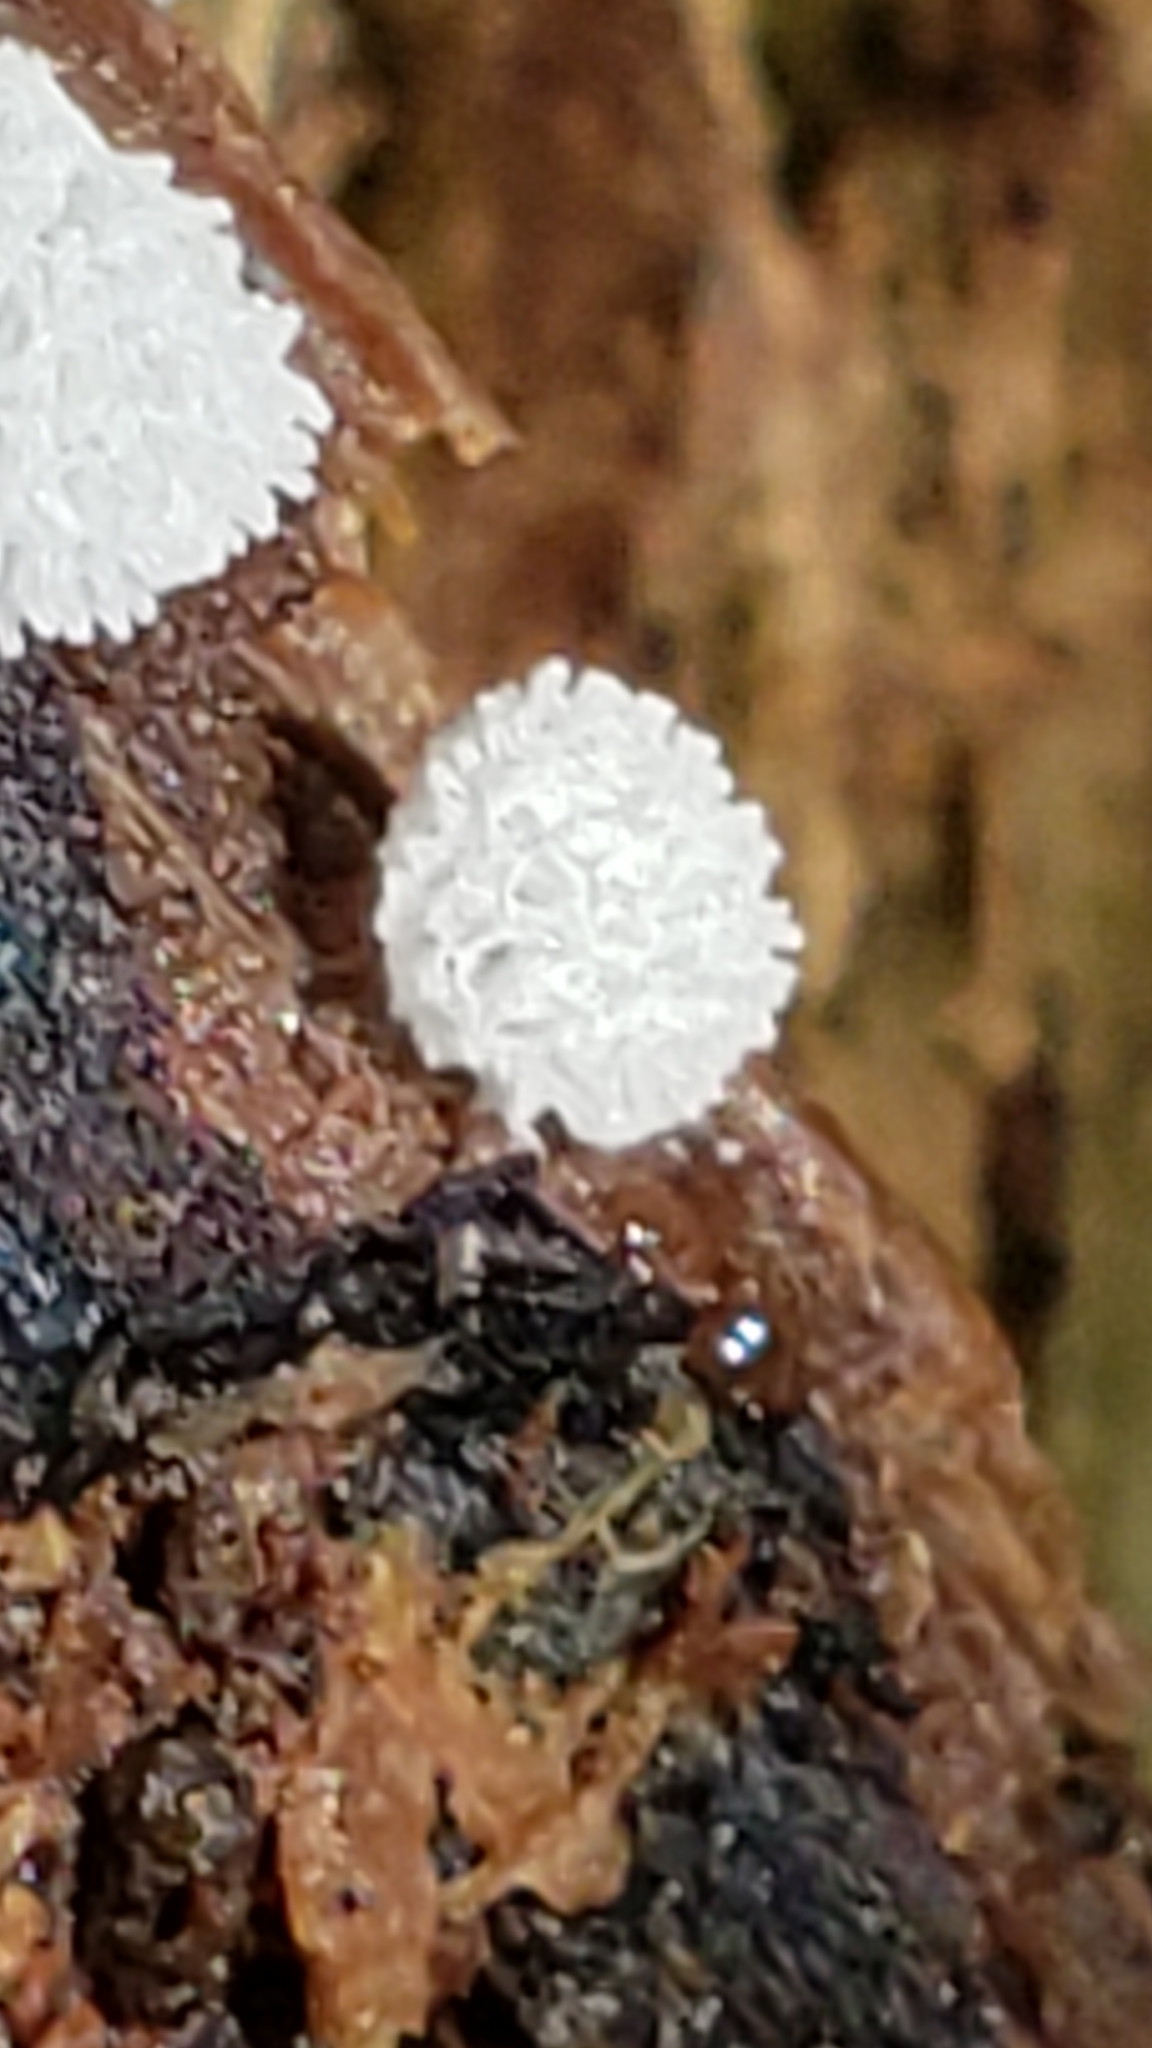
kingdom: Protozoa
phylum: Mycetozoa
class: Protosteliomycetes
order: Ceratiomyxales
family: Ceratiomyxaceae
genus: Ceratiomyxa
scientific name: Ceratiomyxa fruticulosa
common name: Honeycomb coral slime mold
